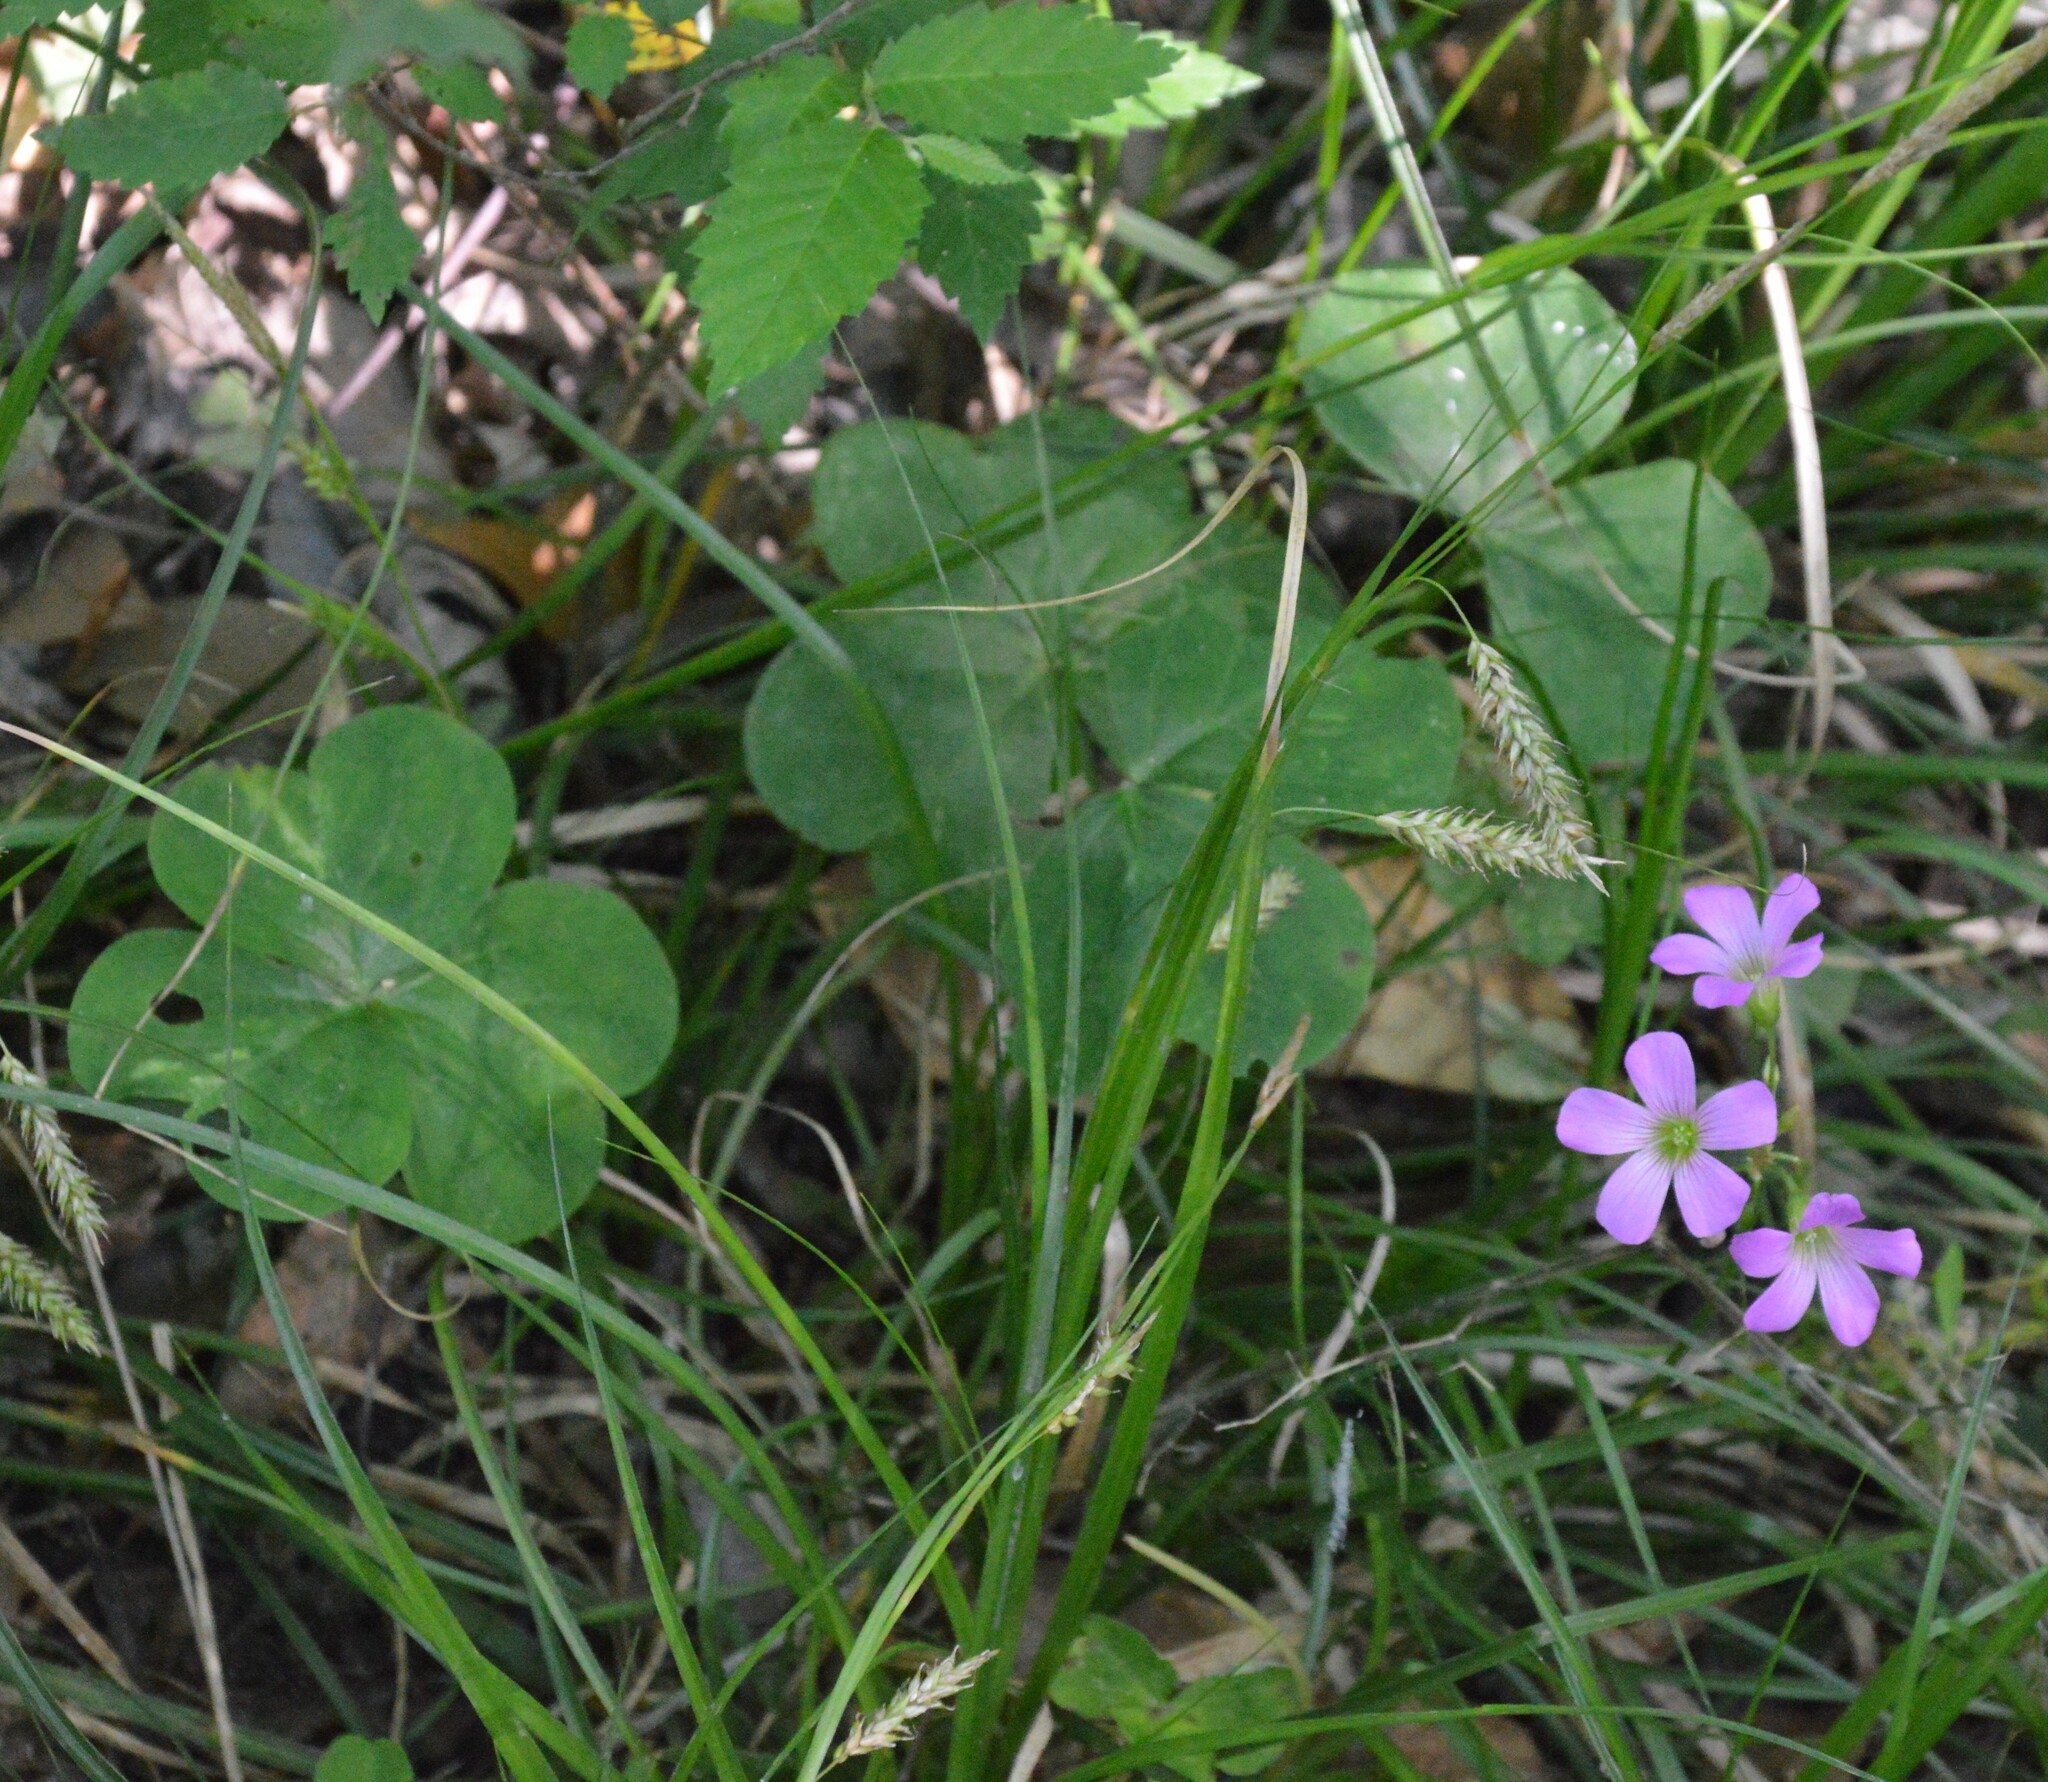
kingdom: Plantae
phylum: Tracheophyta
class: Magnoliopsida
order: Oxalidales
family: Oxalidaceae
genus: Oxalis
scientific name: Oxalis debilis
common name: Large-flowered pink-sorrel
